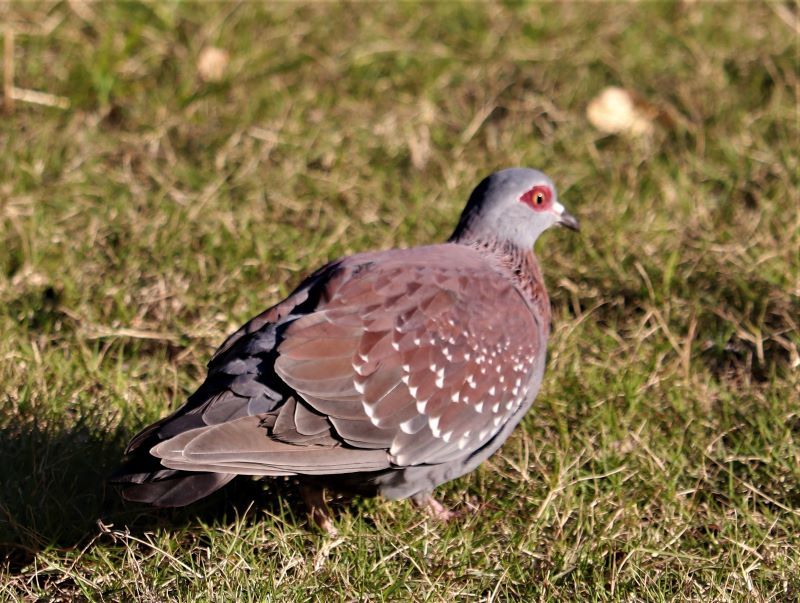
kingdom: Animalia
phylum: Chordata
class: Aves
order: Columbiformes
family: Columbidae
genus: Columba
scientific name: Columba guinea
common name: Speckled pigeon
